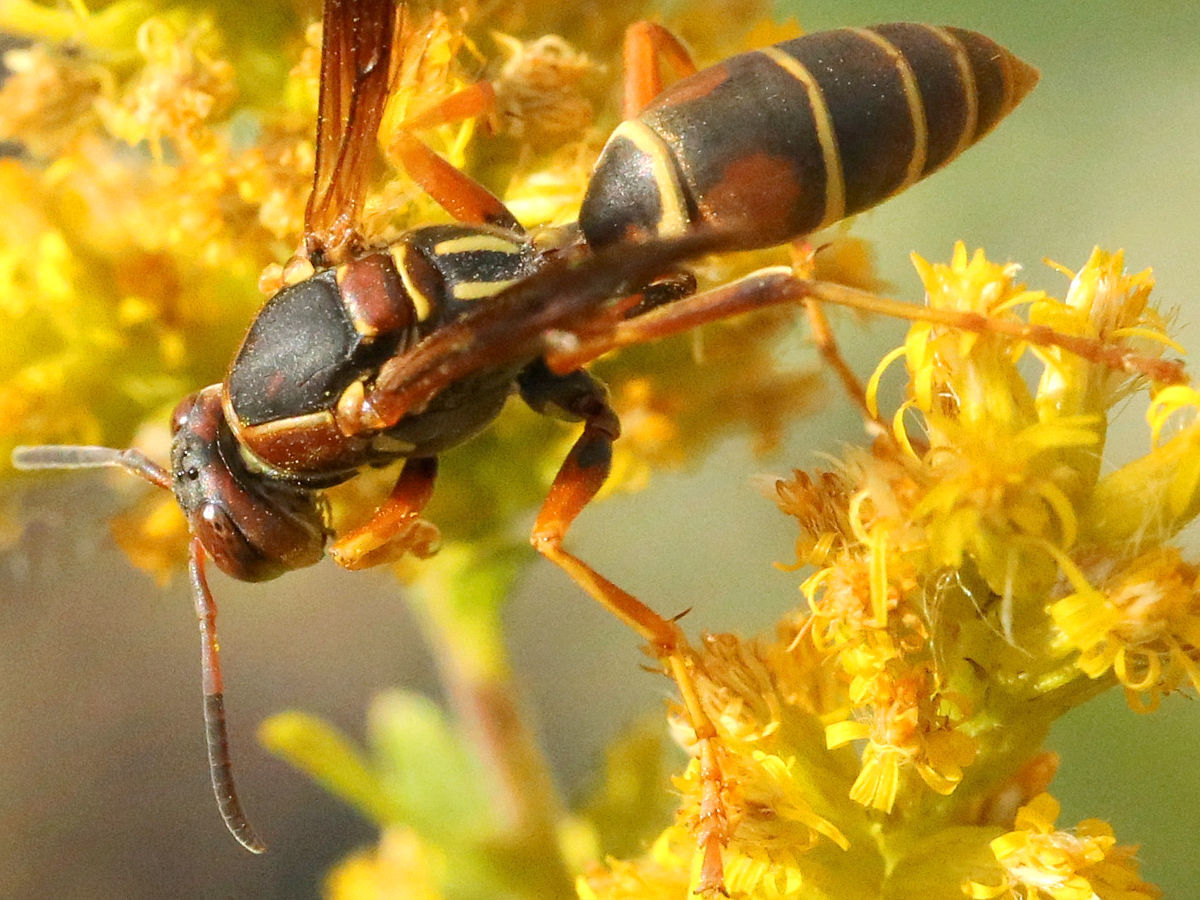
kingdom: Animalia
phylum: Arthropoda
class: Insecta
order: Hymenoptera
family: Eumenidae
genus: Polistes
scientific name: Polistes fuscatus
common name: Dark paper wasp
